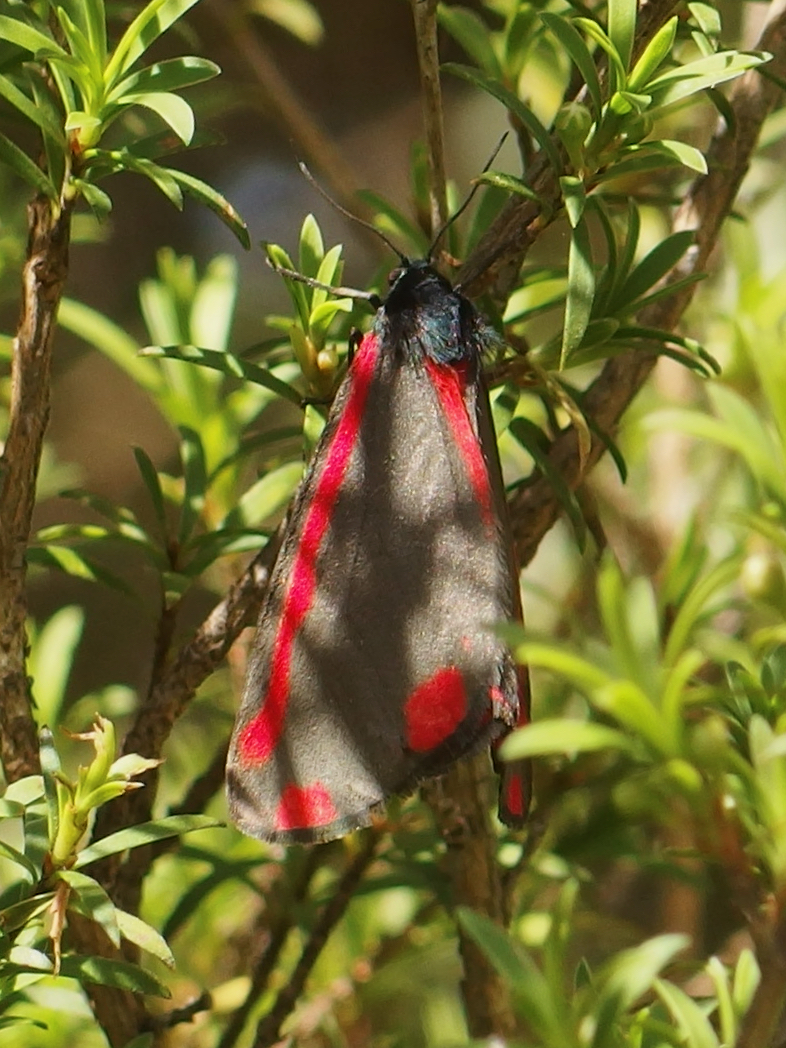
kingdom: Animalia
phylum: Arthropoda
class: Insecta
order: Lepidoptera
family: Erebidae
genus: Tyria
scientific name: Tyria jacobaeae
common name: Cinnabar
